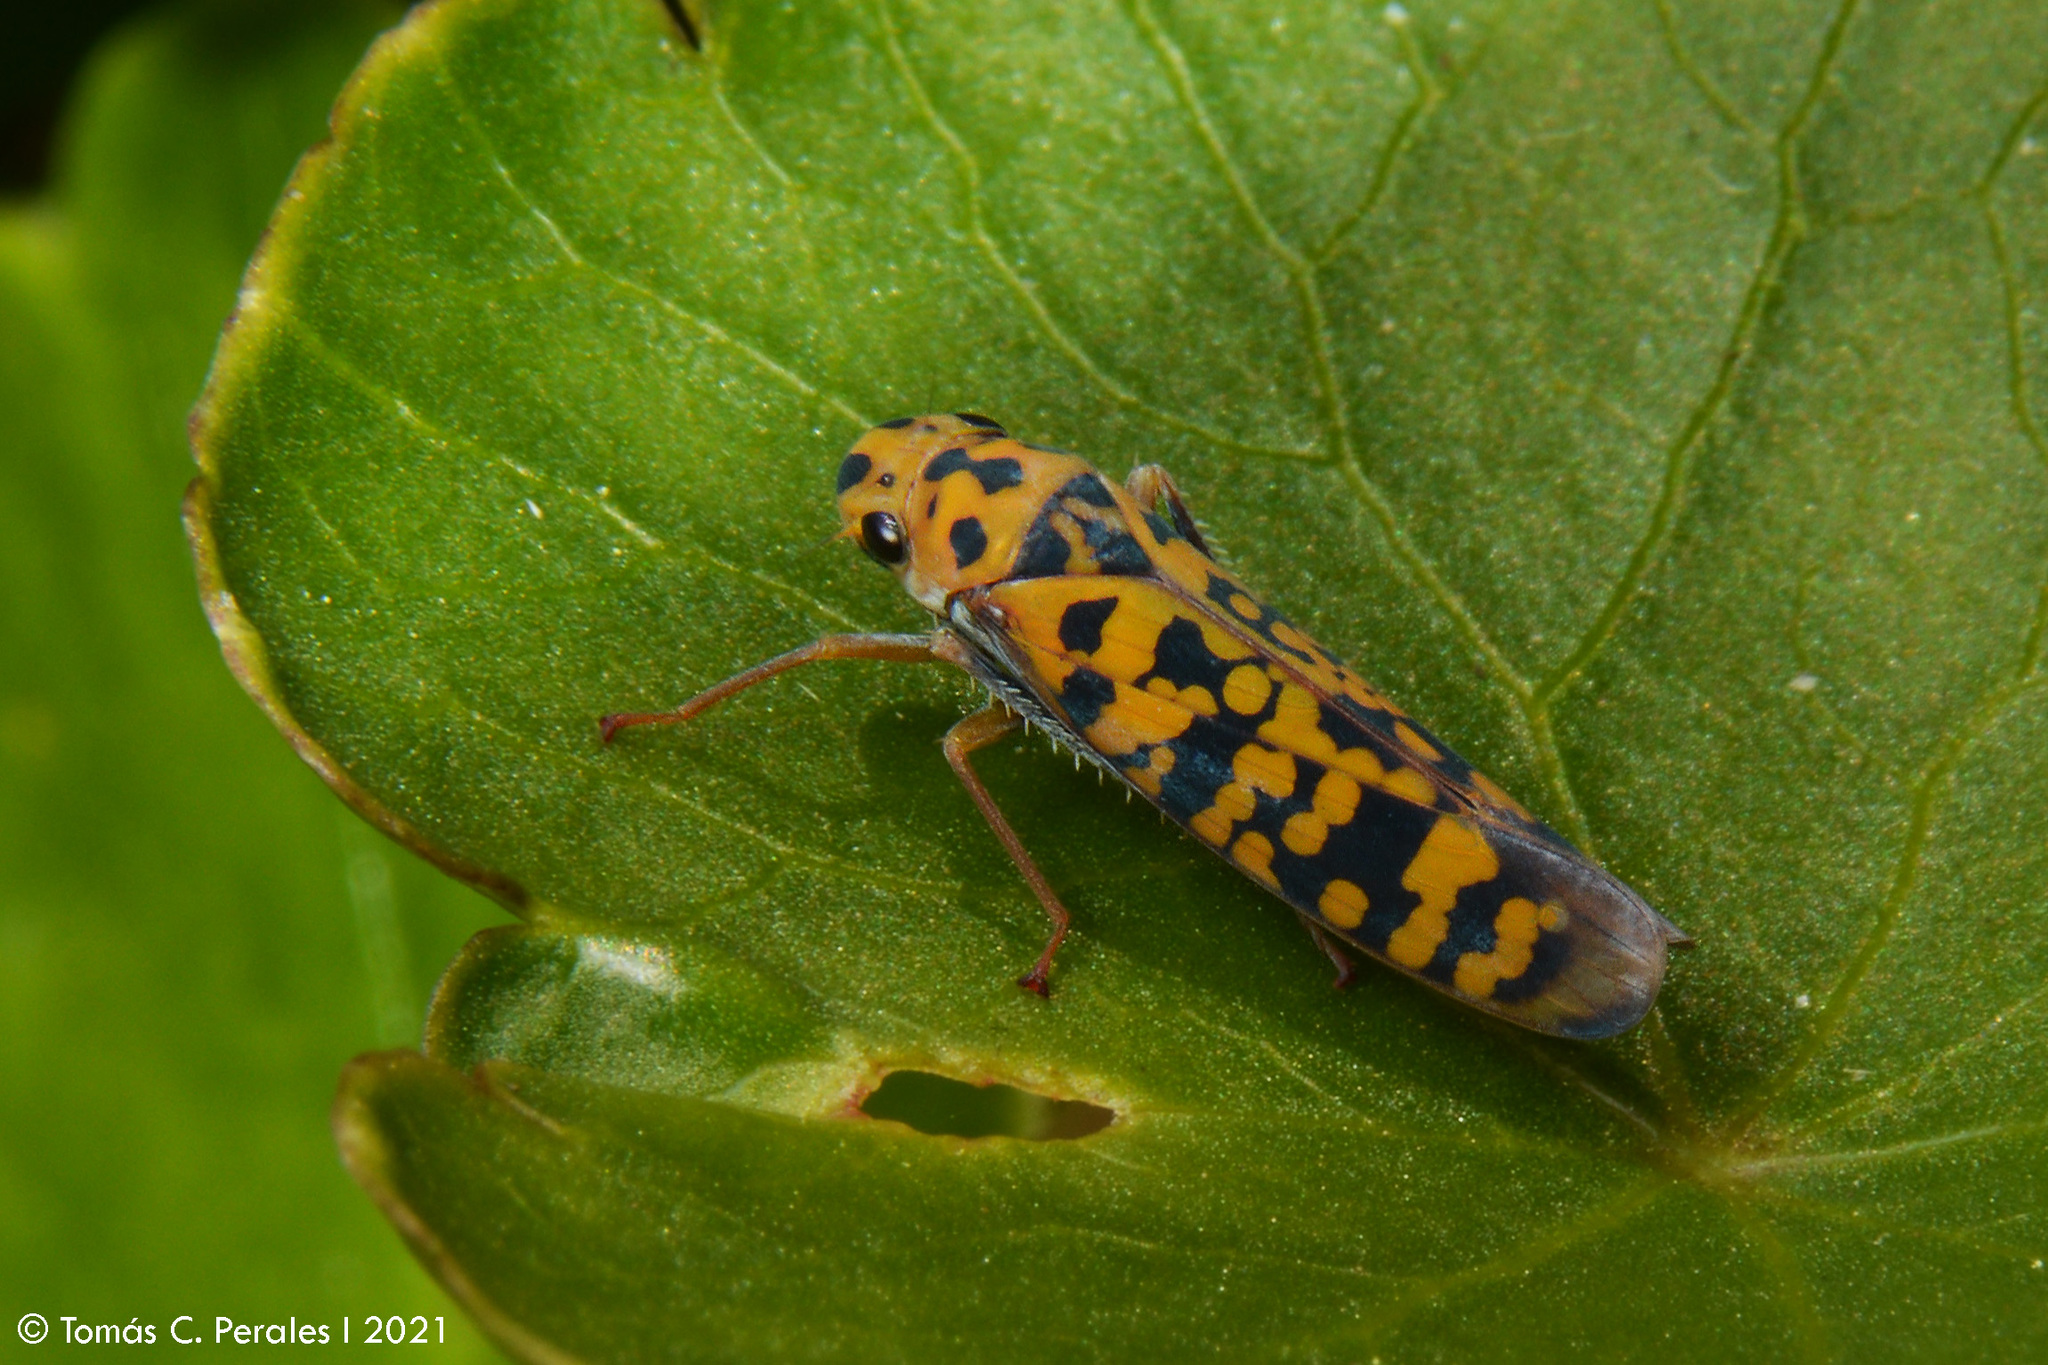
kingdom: Animalia
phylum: Arthropoda
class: Insecta
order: Hemiptera
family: Cicadellidae
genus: Pawiloma
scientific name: Pawiloma victima
